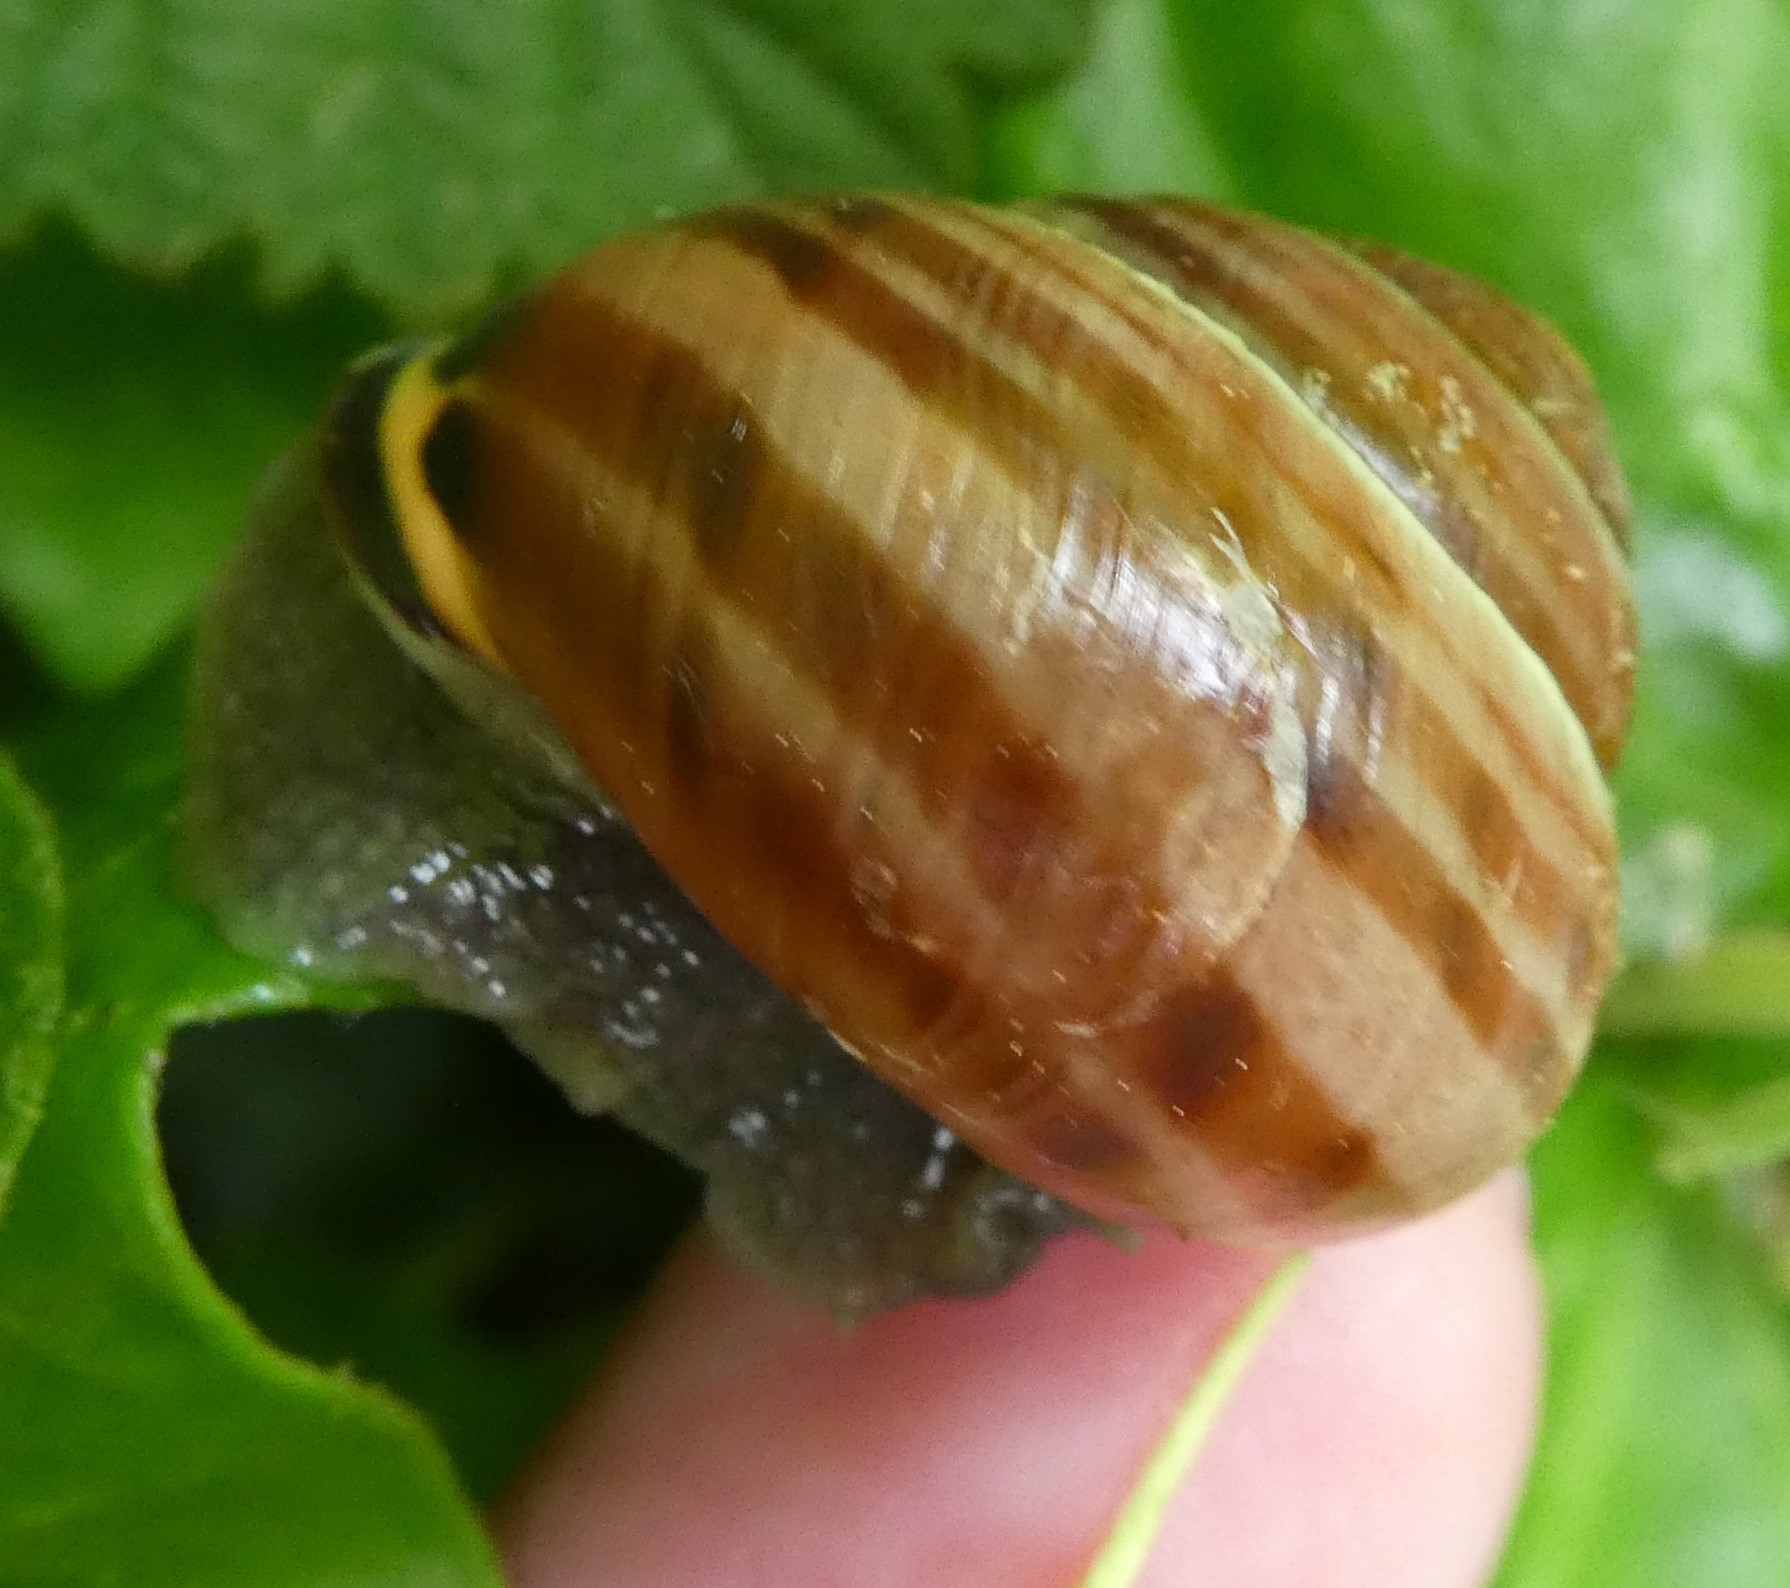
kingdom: Animalia
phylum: Mollusca
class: Gastropoda
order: Stylommatophora
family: Helicidae
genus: Cepaea
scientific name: Cepaea nemoralis
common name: Grovesnail
